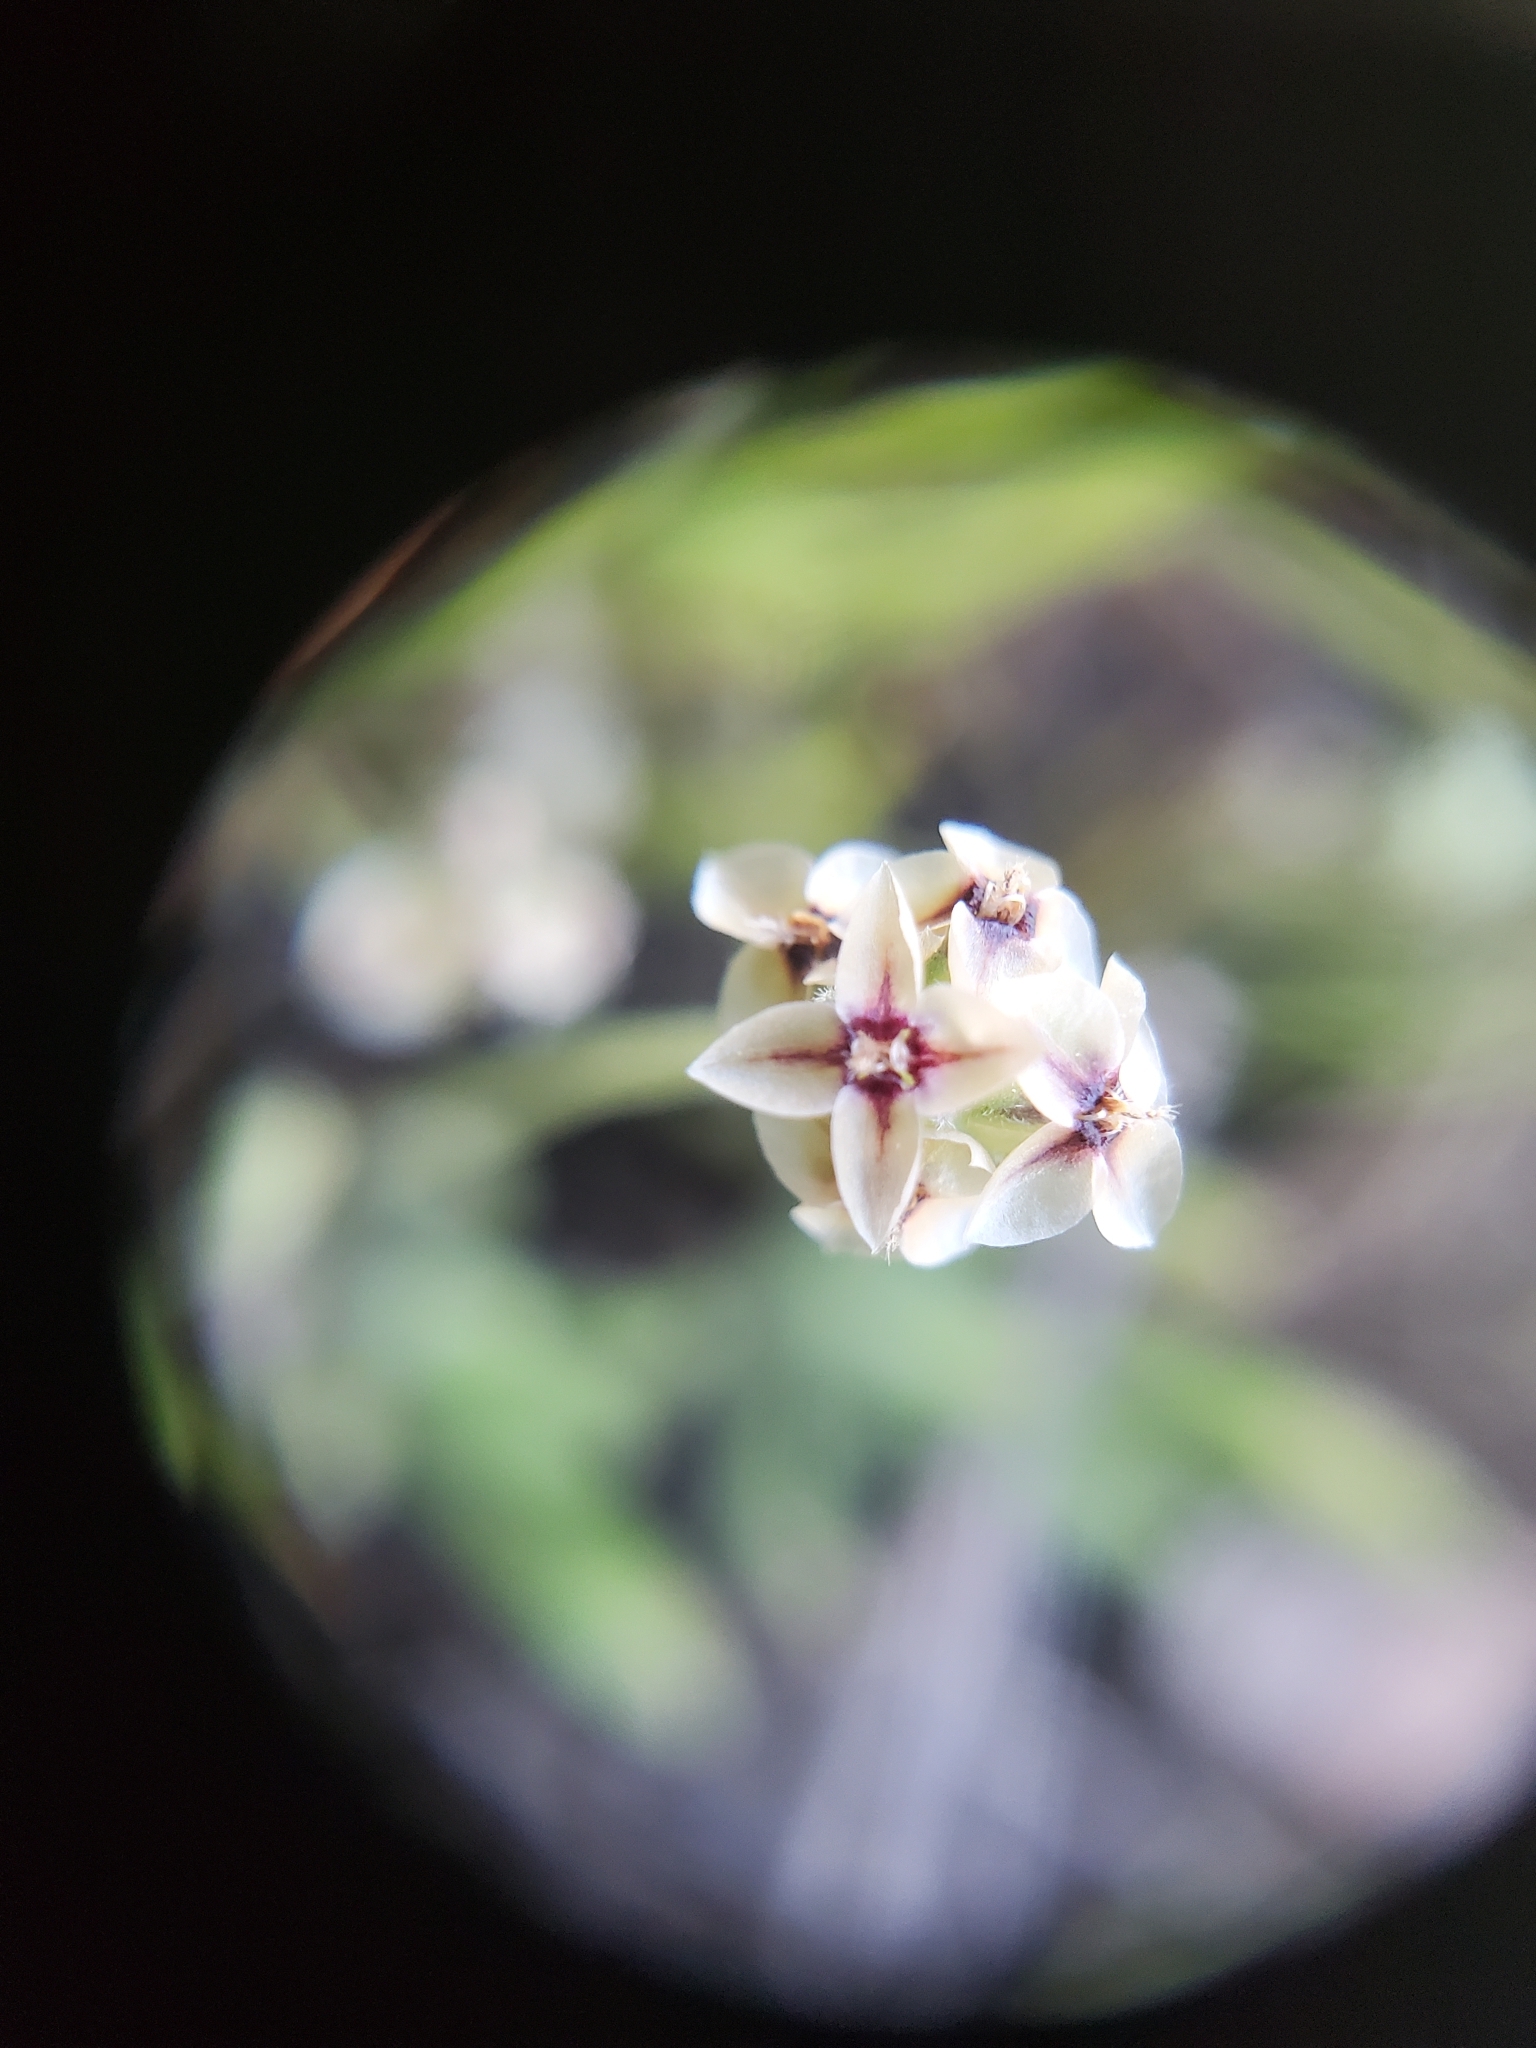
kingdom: Plantae
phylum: Tracheophyta
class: Magnoliopsida
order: Lamiales
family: Plantaginaceae
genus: Plantago
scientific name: Plantago erecta
